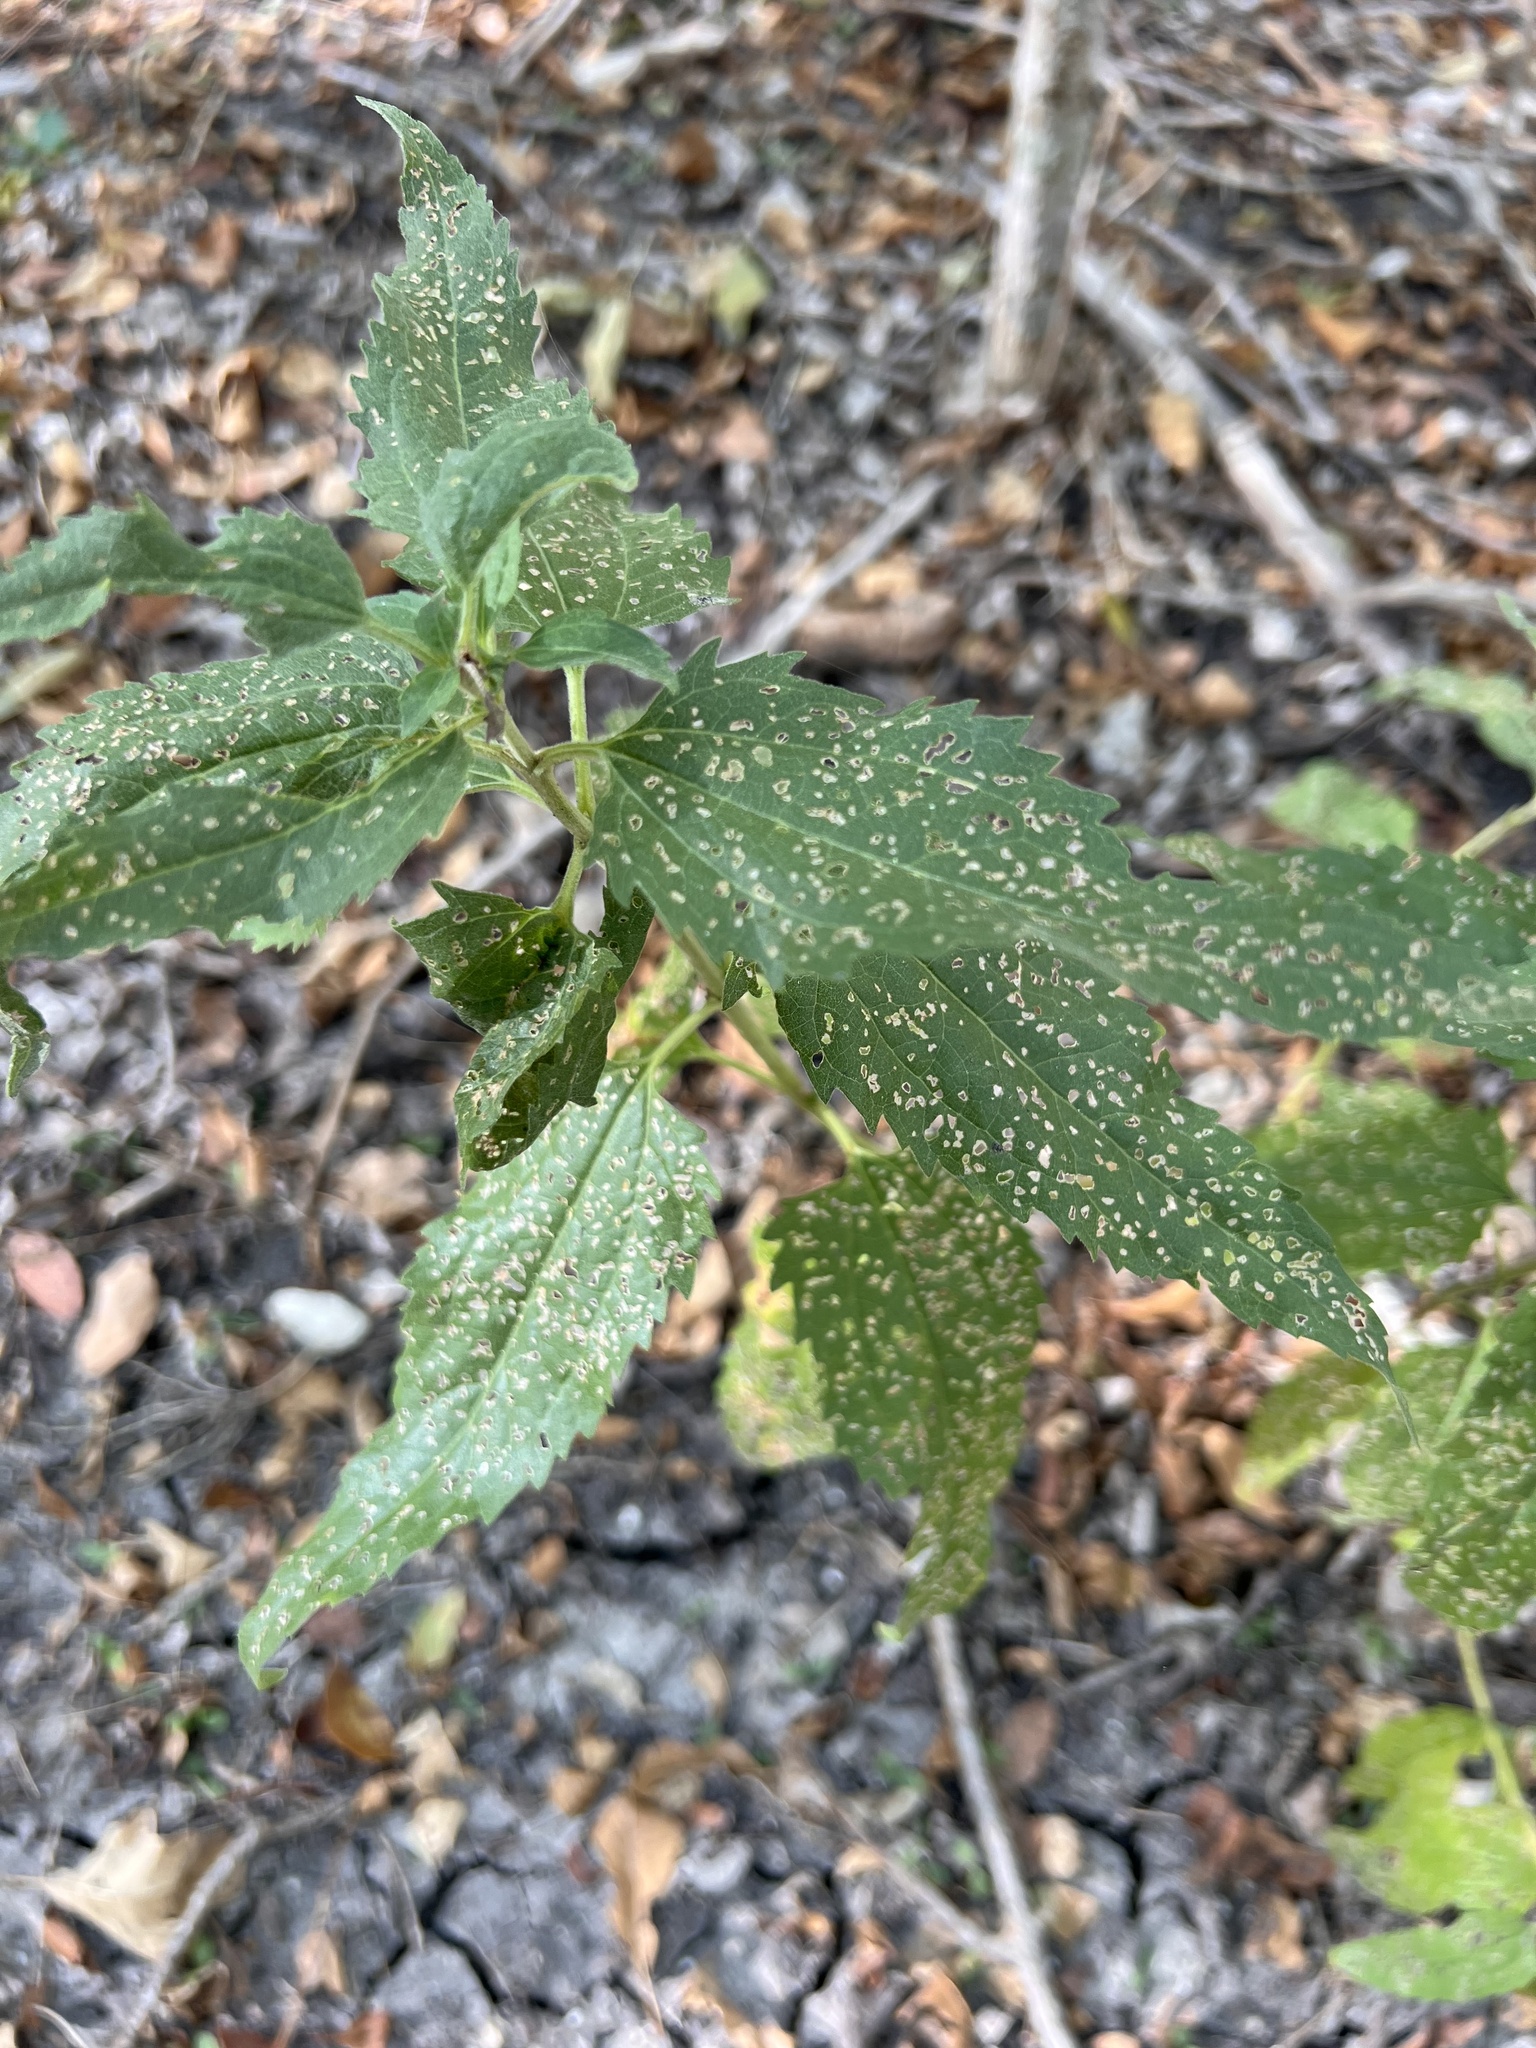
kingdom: Plantae
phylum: Tracheophyta
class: Magnoliopsida
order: Asterales
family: Asteraceae
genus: Eupatorium
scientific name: Eupatorium serotinum
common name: Late boneset
